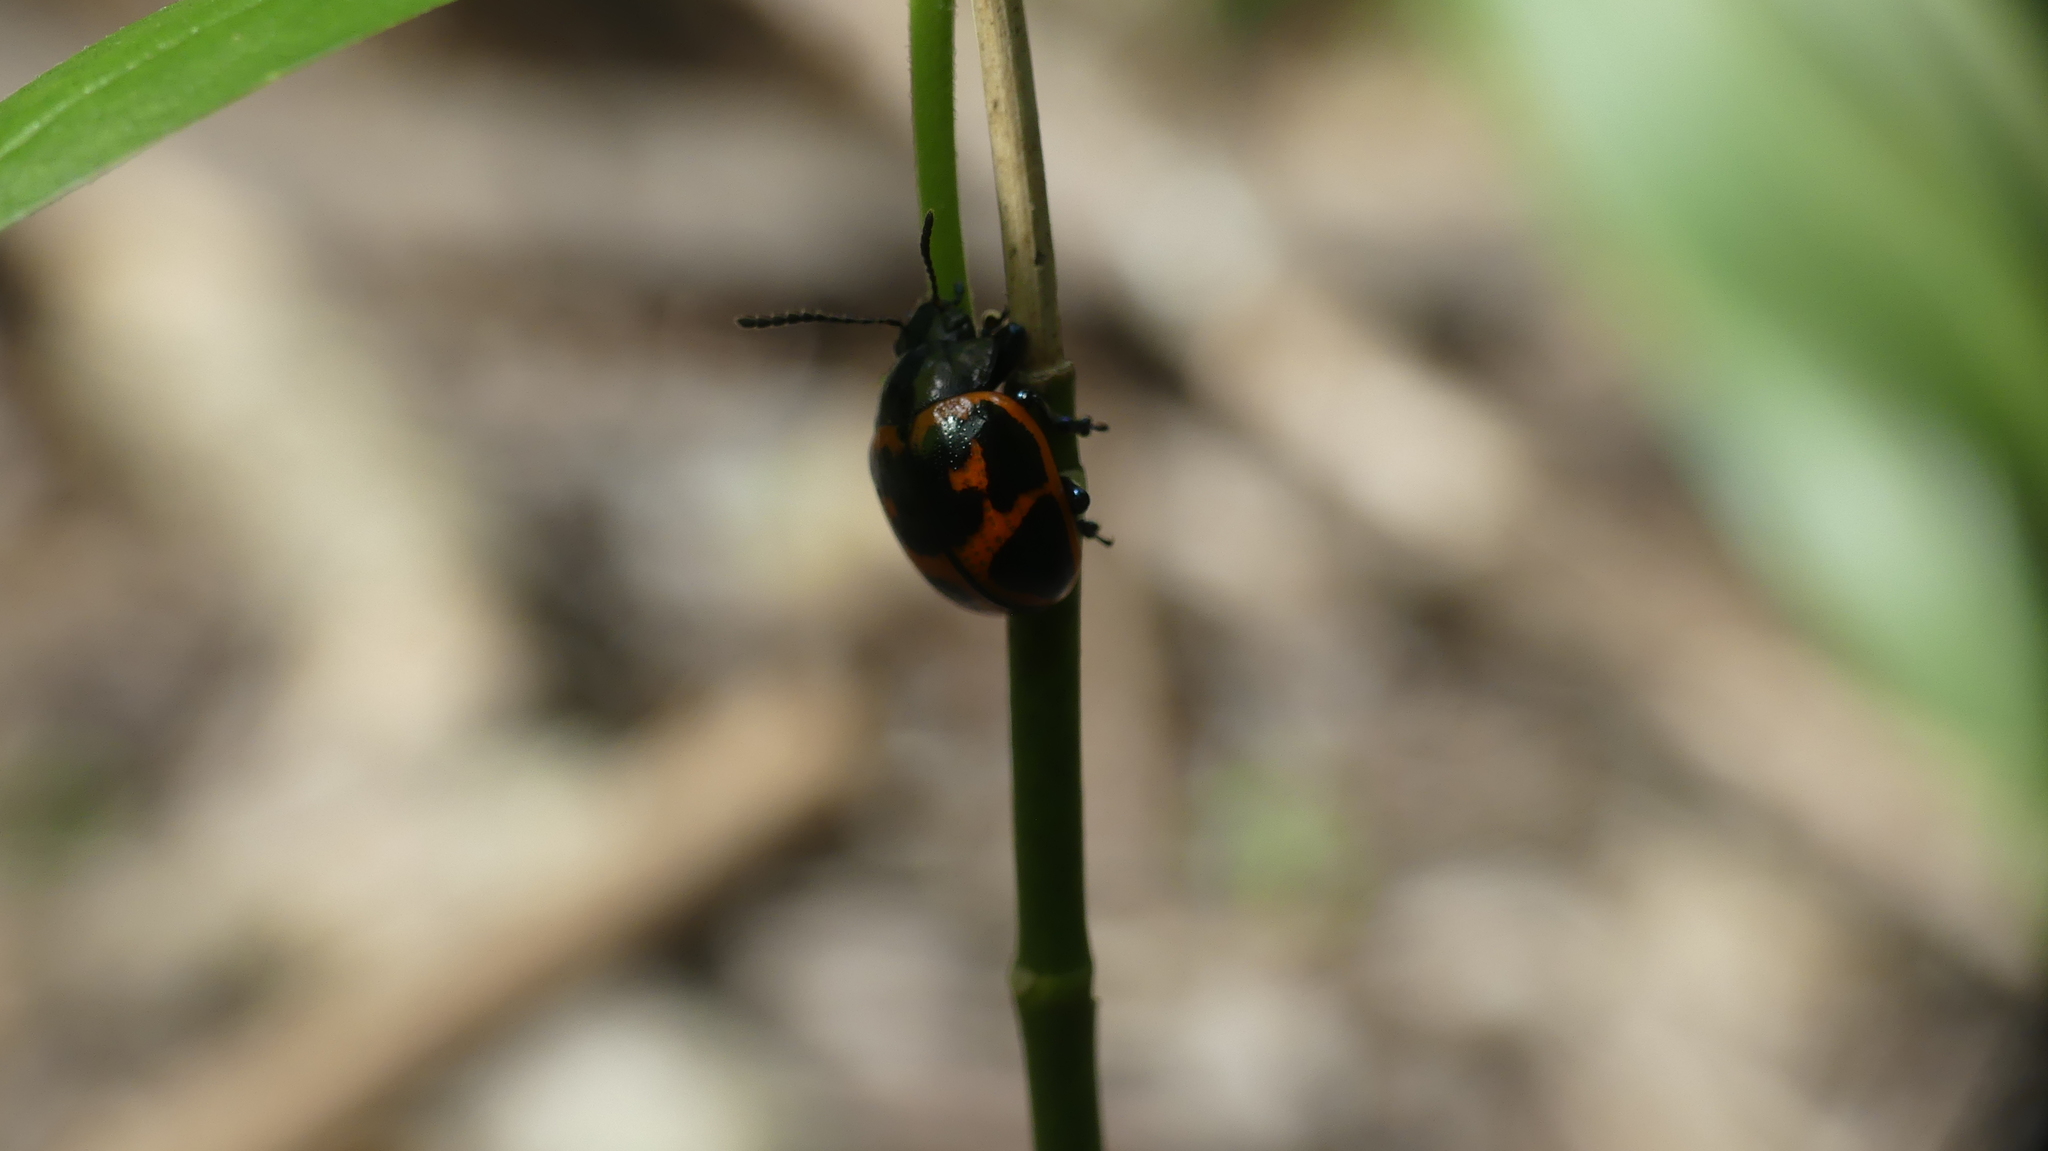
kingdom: Animalia
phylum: Arthropoda
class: Insecta
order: Coleoptera
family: Chrysomelidae
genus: Labidomera
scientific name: Labidomera clivicollis
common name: Swamp milkweed leaf beetle
